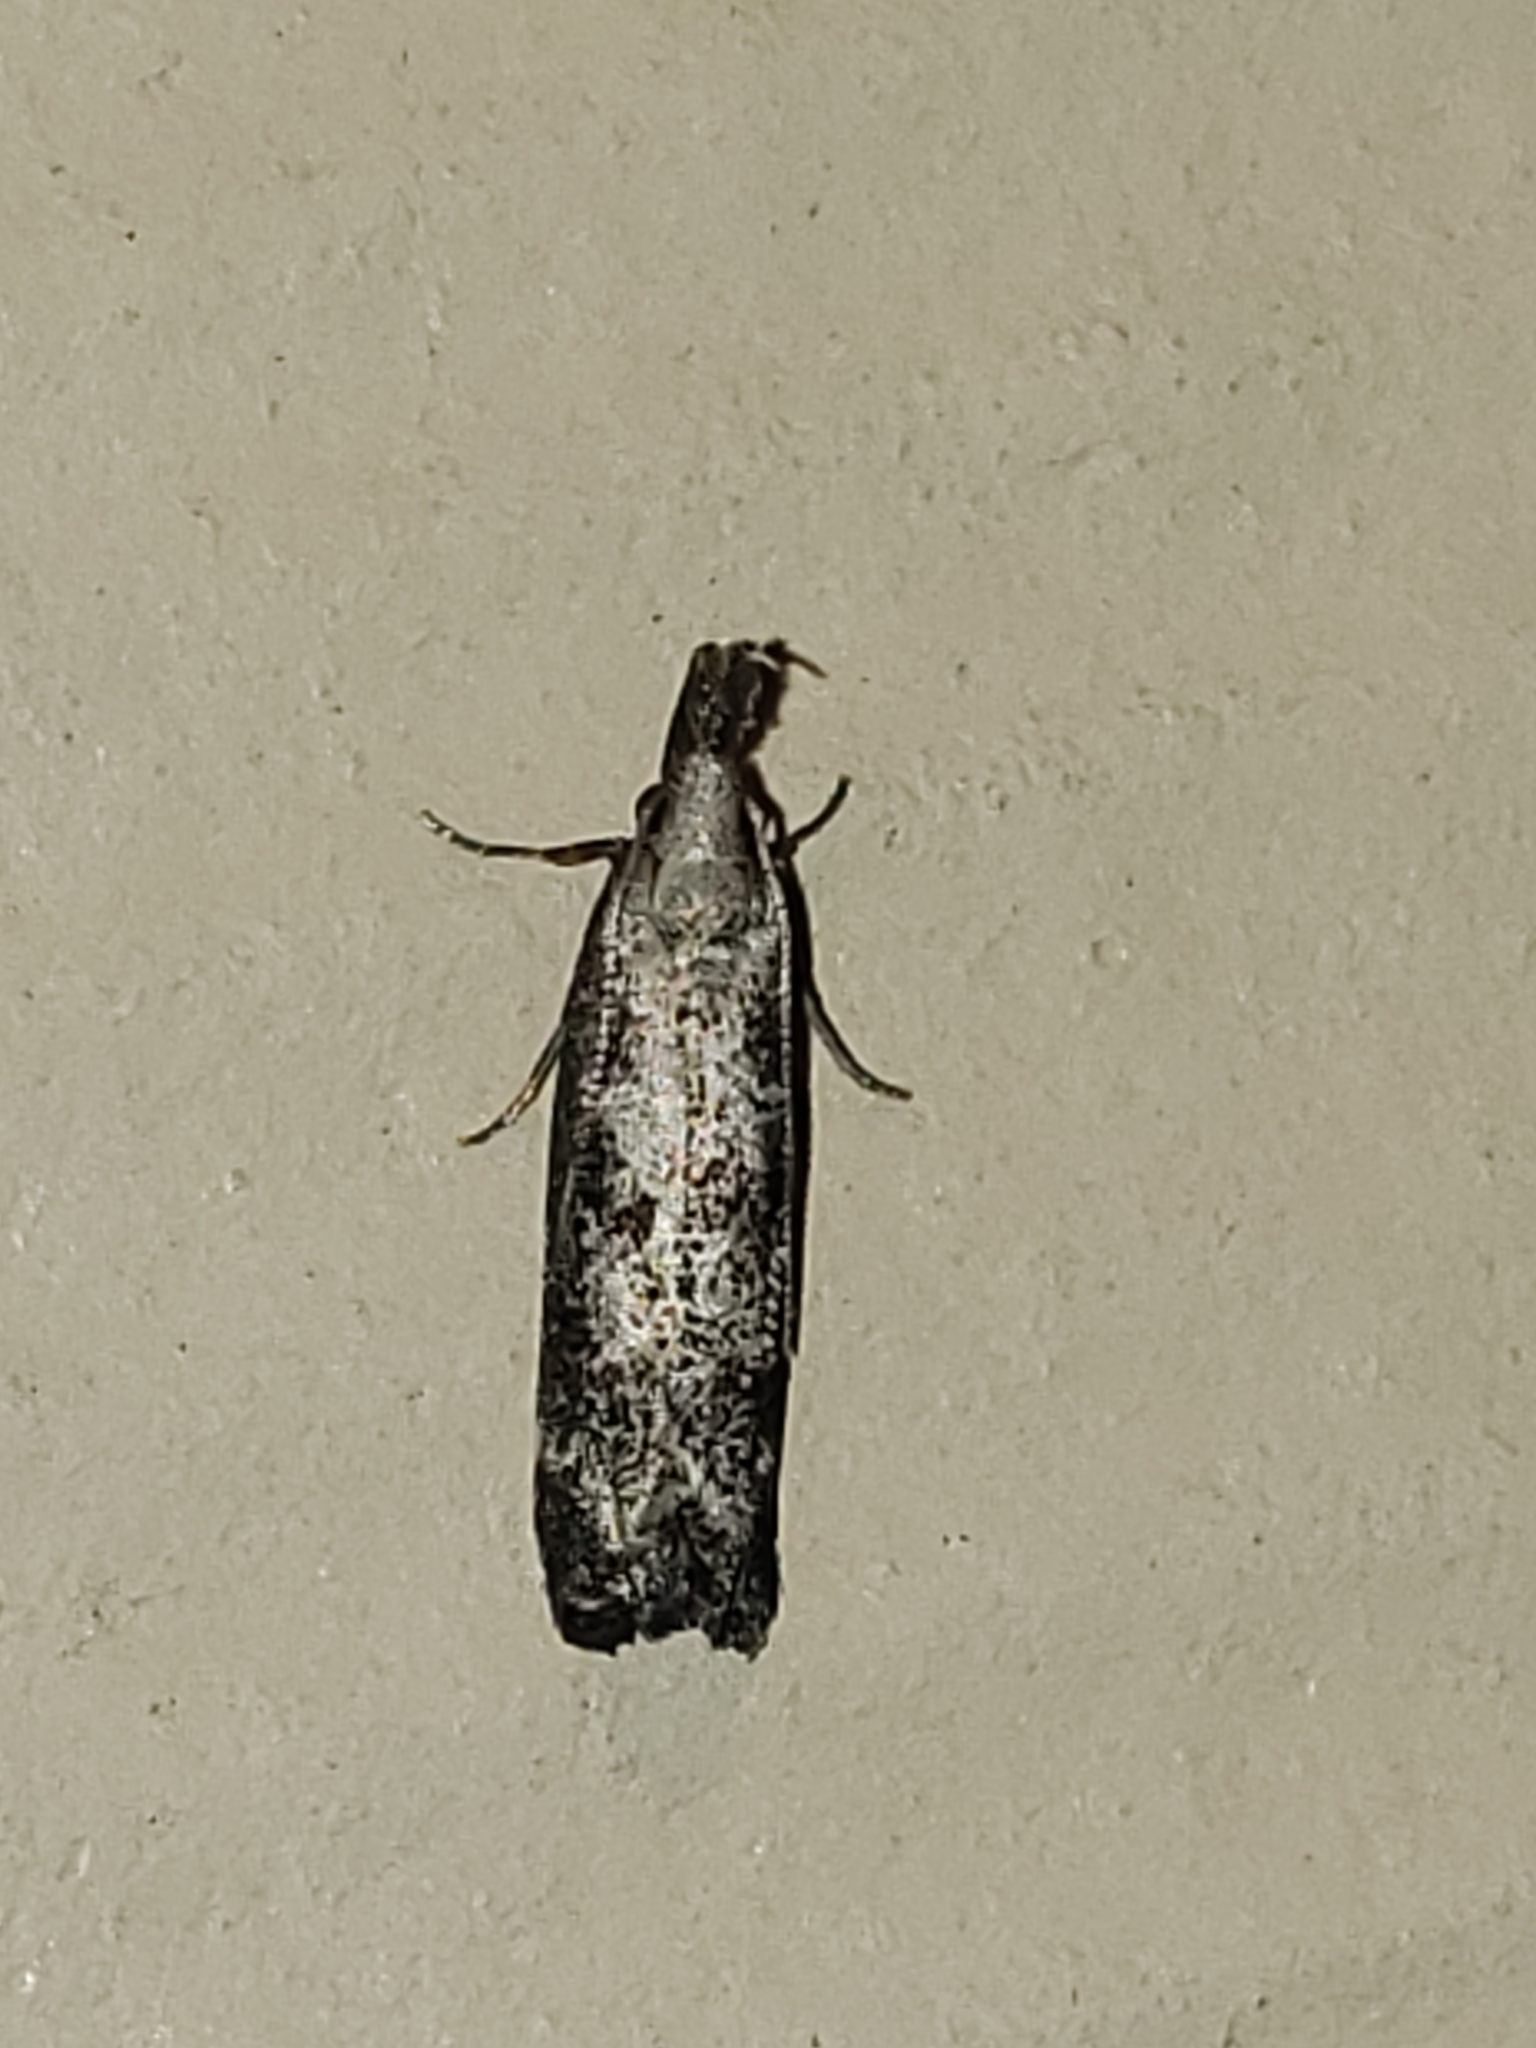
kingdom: Animalia
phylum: Arthropoda
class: Insecta
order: Lepidoptera
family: Gelechiidae
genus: Dichomeris
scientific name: Dichomeris inversella
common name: Inverse dichomeris moth
